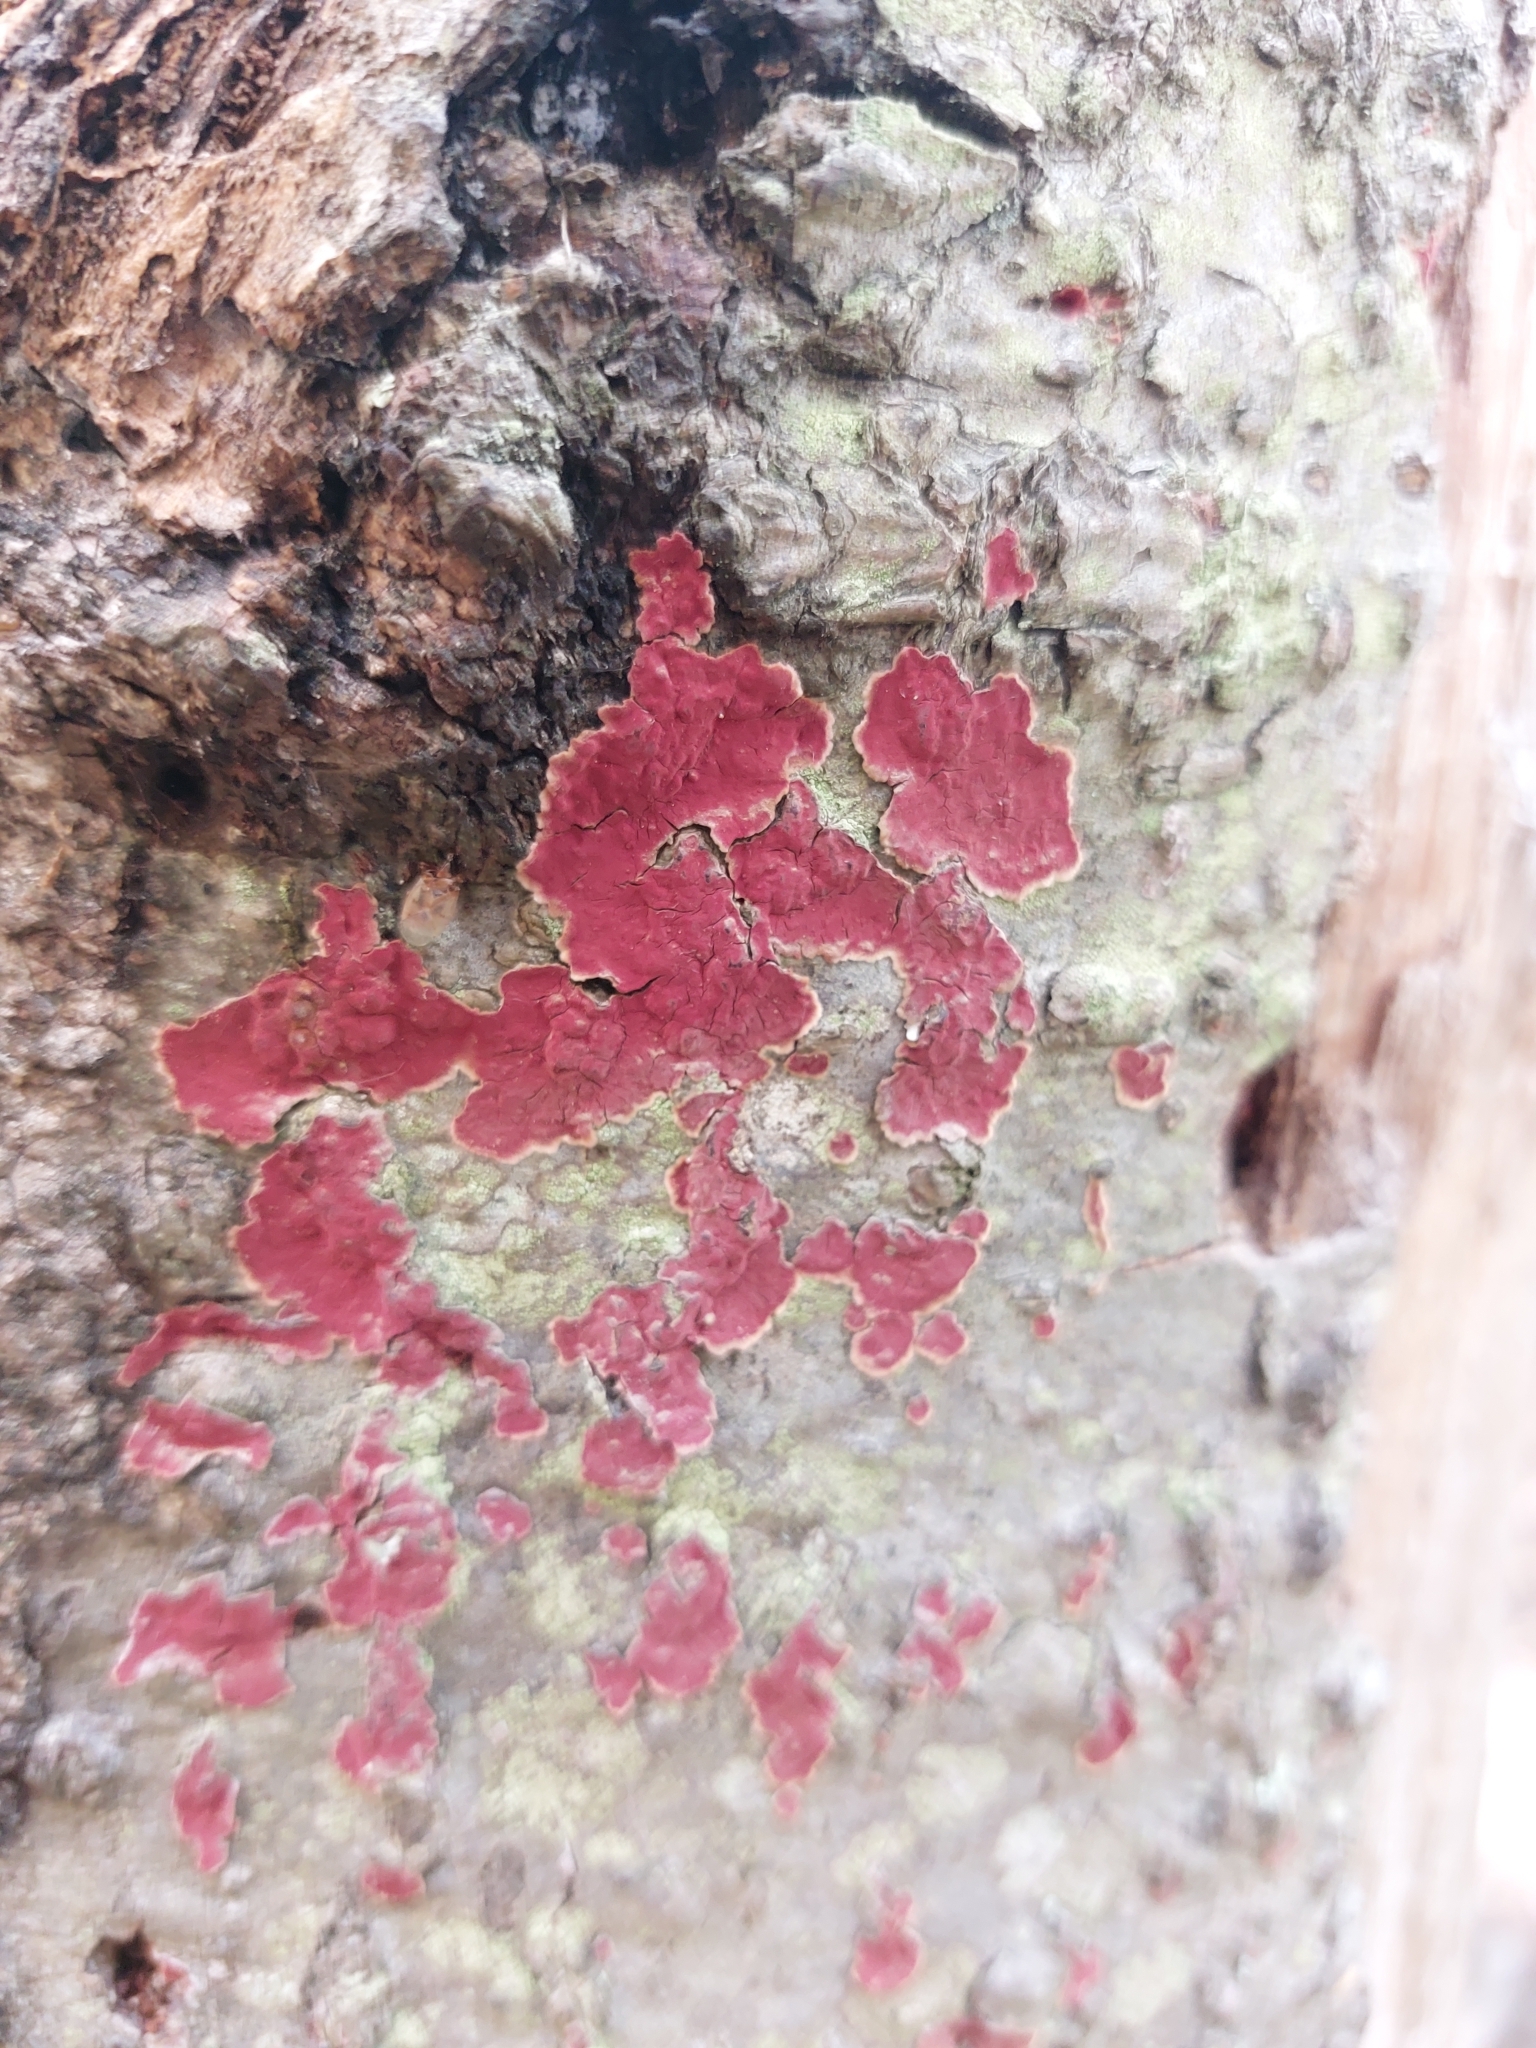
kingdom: Fungi
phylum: Basidiomycota
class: Agaricomycetes
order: Hymenochaetales
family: Hymenochaetaceae
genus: Hymenochaete
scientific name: Hymenochaete cruenta
